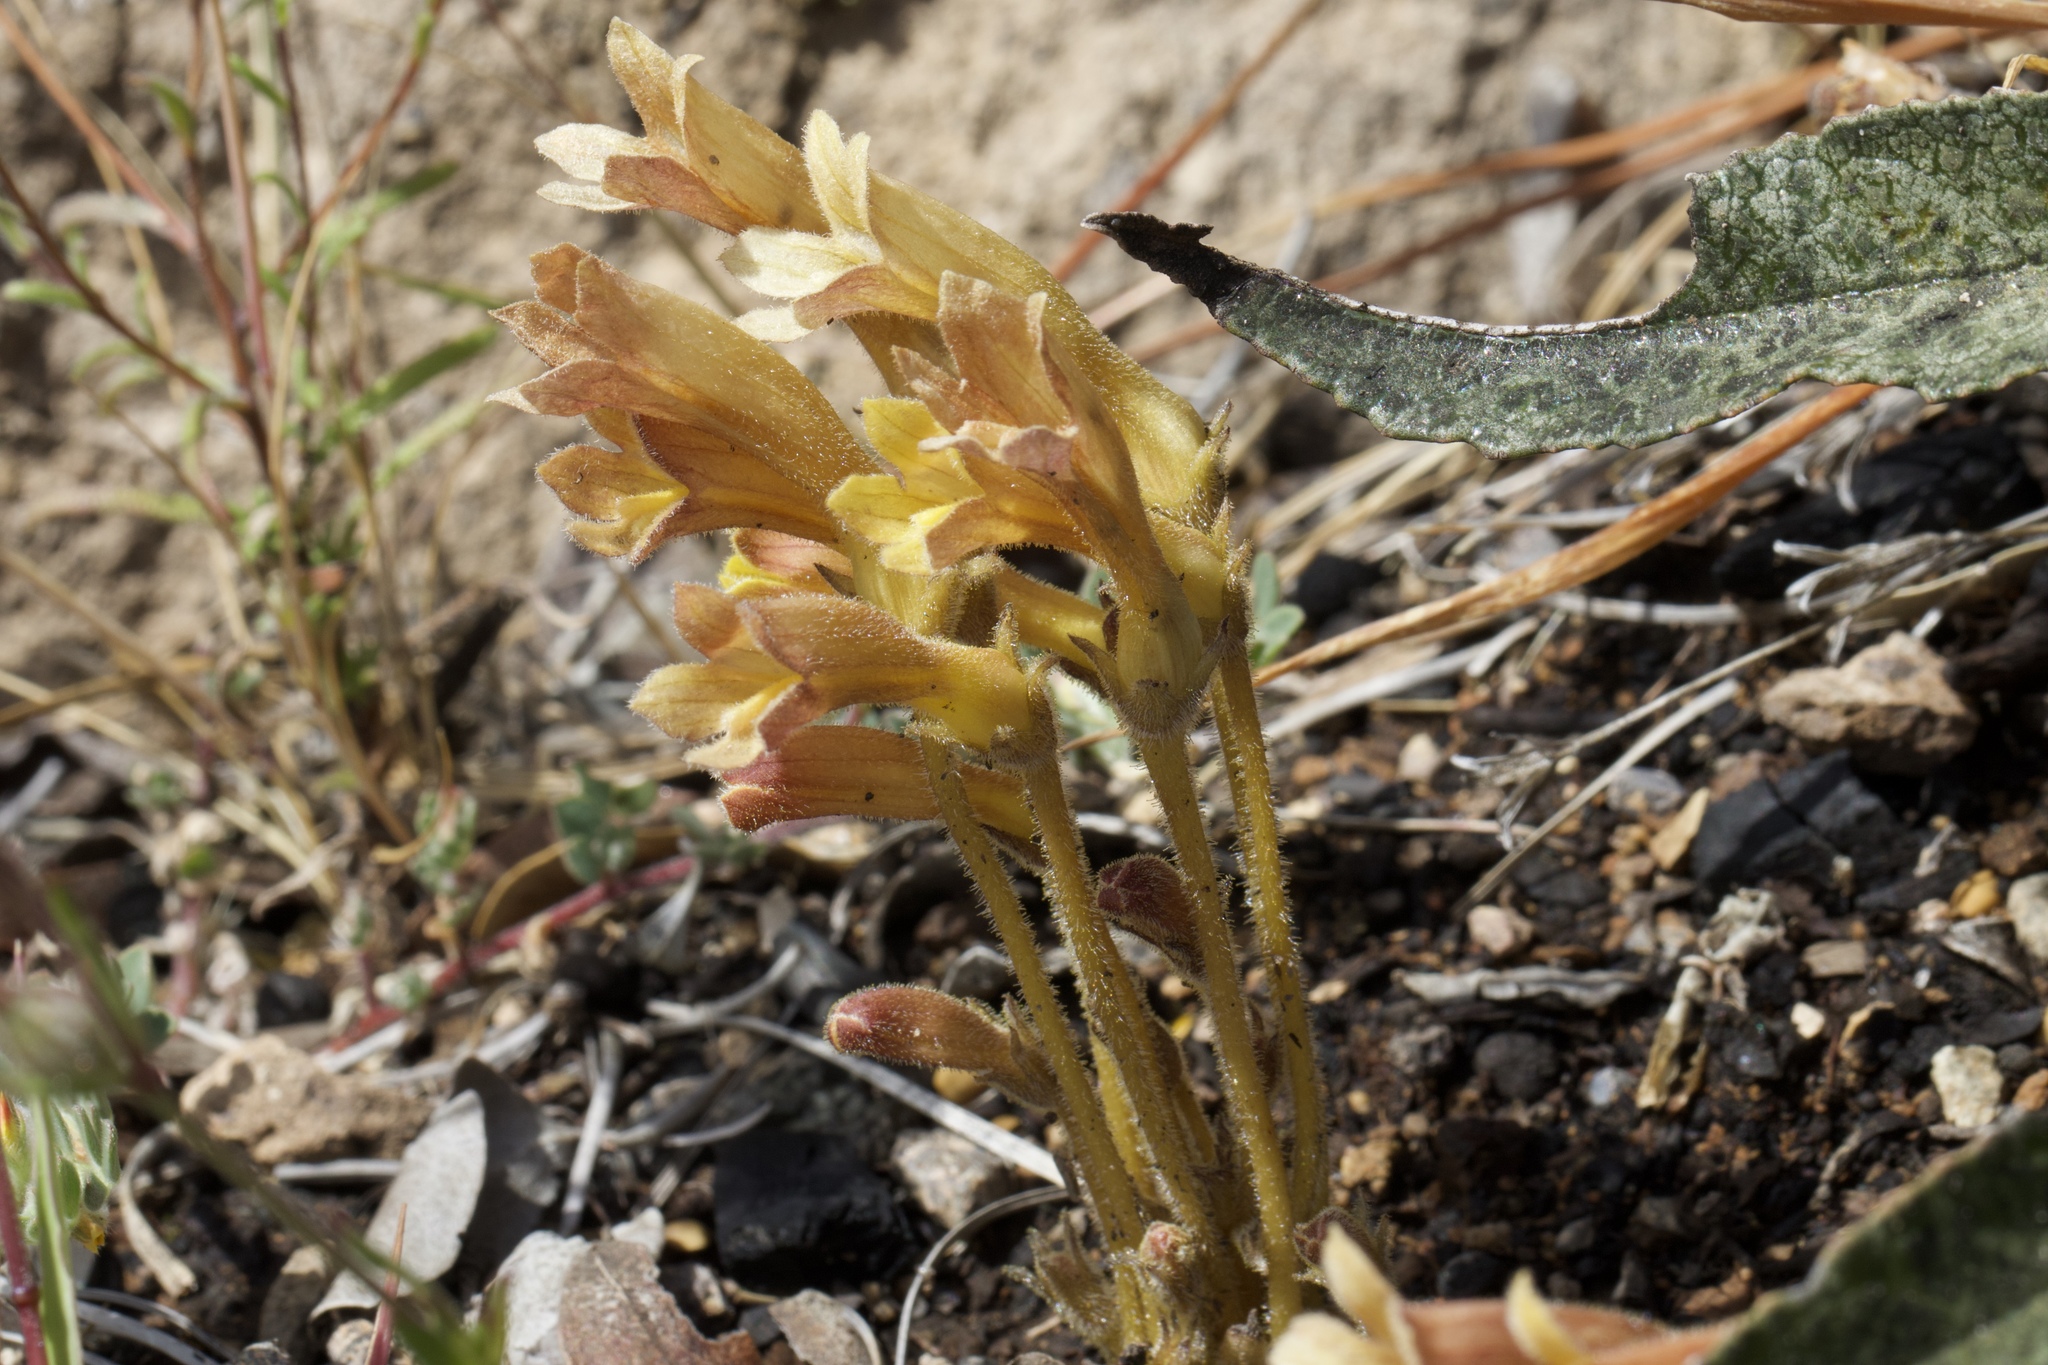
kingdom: Plantae
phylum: Tracheophyta
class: Magnoliopsida
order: Lamiales
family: Orobanchaceae
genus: Aphyllon
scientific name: Aphyllon franciscanum
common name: San francisco broomrape
